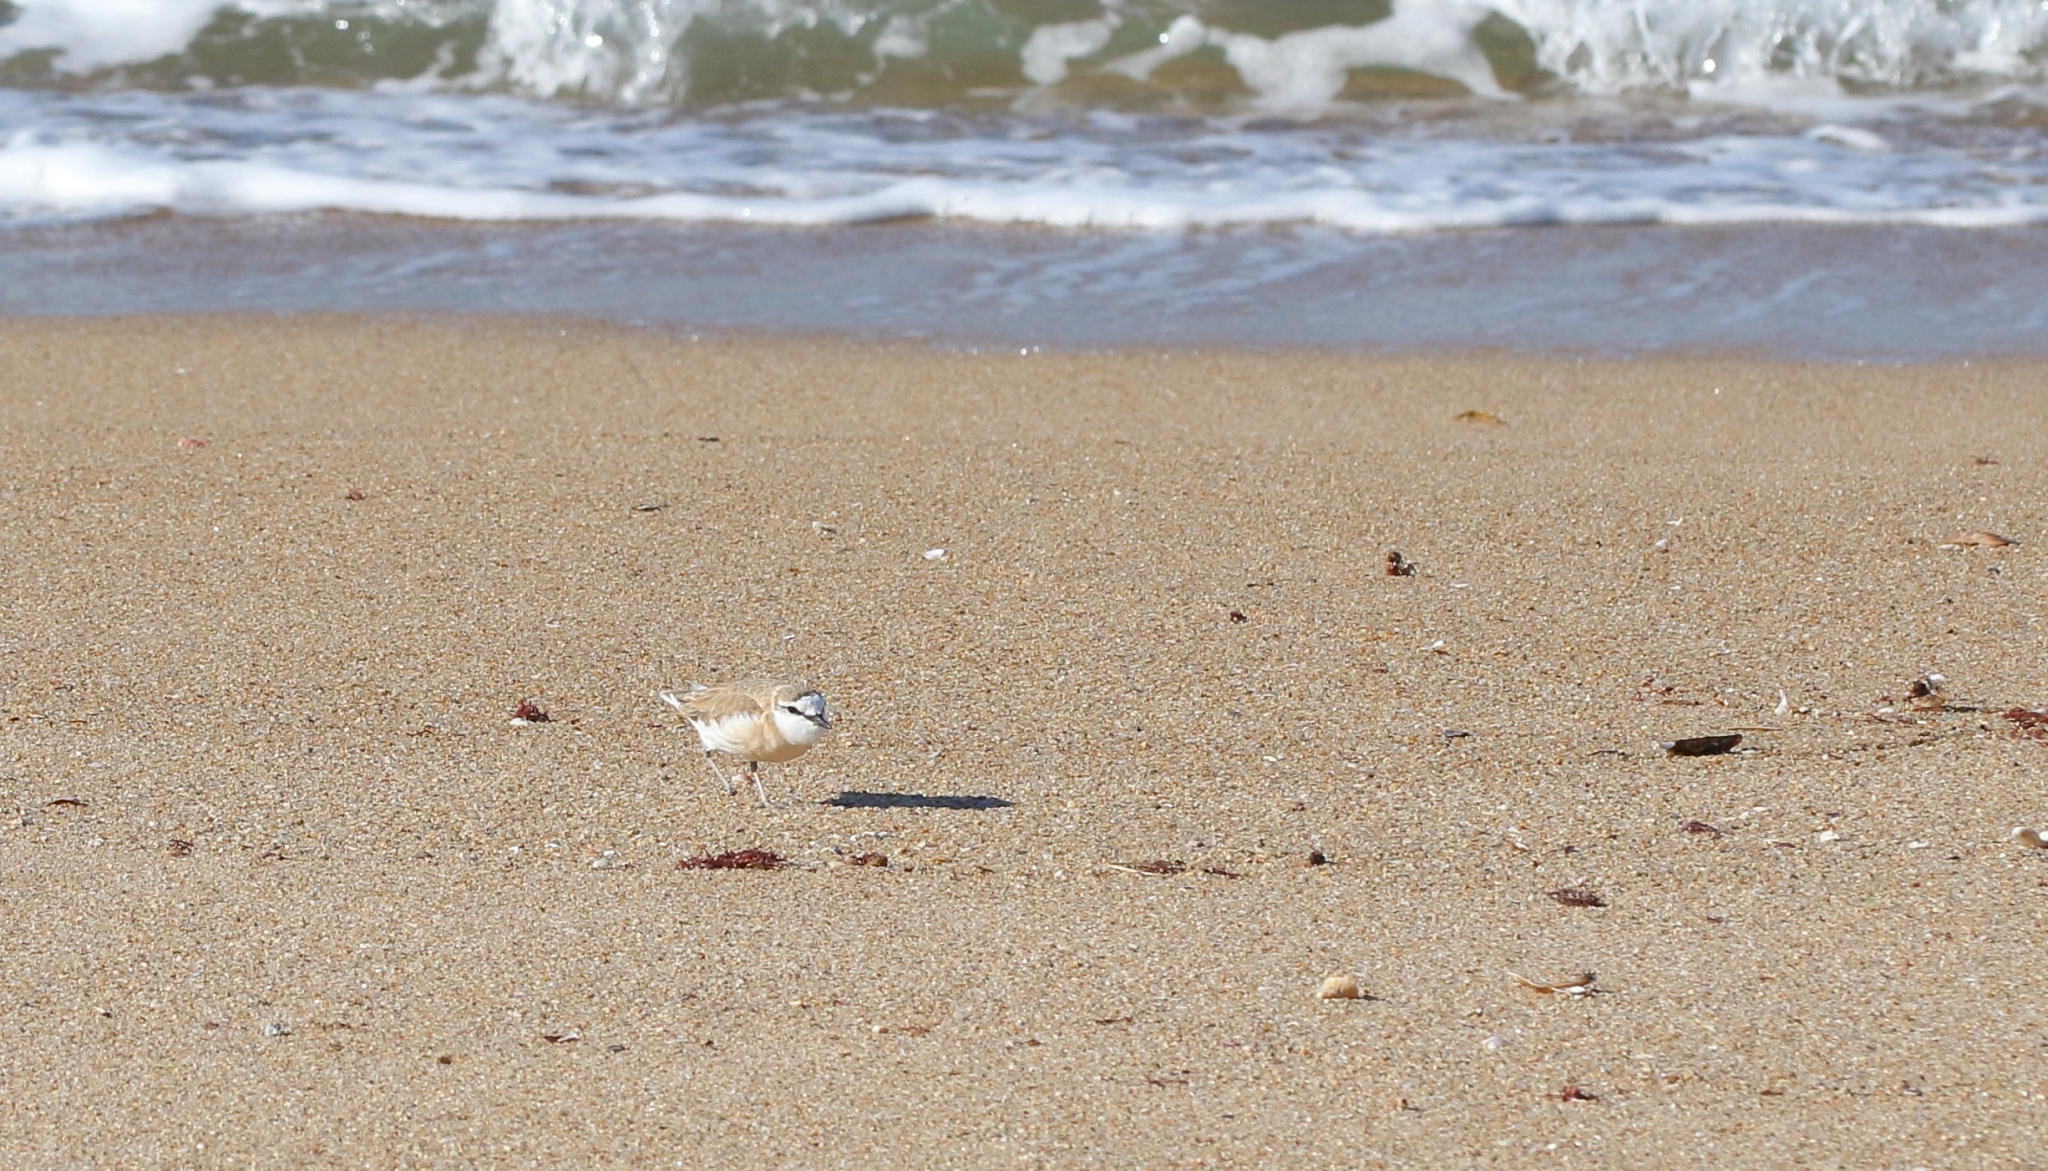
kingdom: Animalia
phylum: Chordata
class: Aves
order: Charadriiformes
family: Charadriidae
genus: Anarhynchus
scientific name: Anarhynchus
